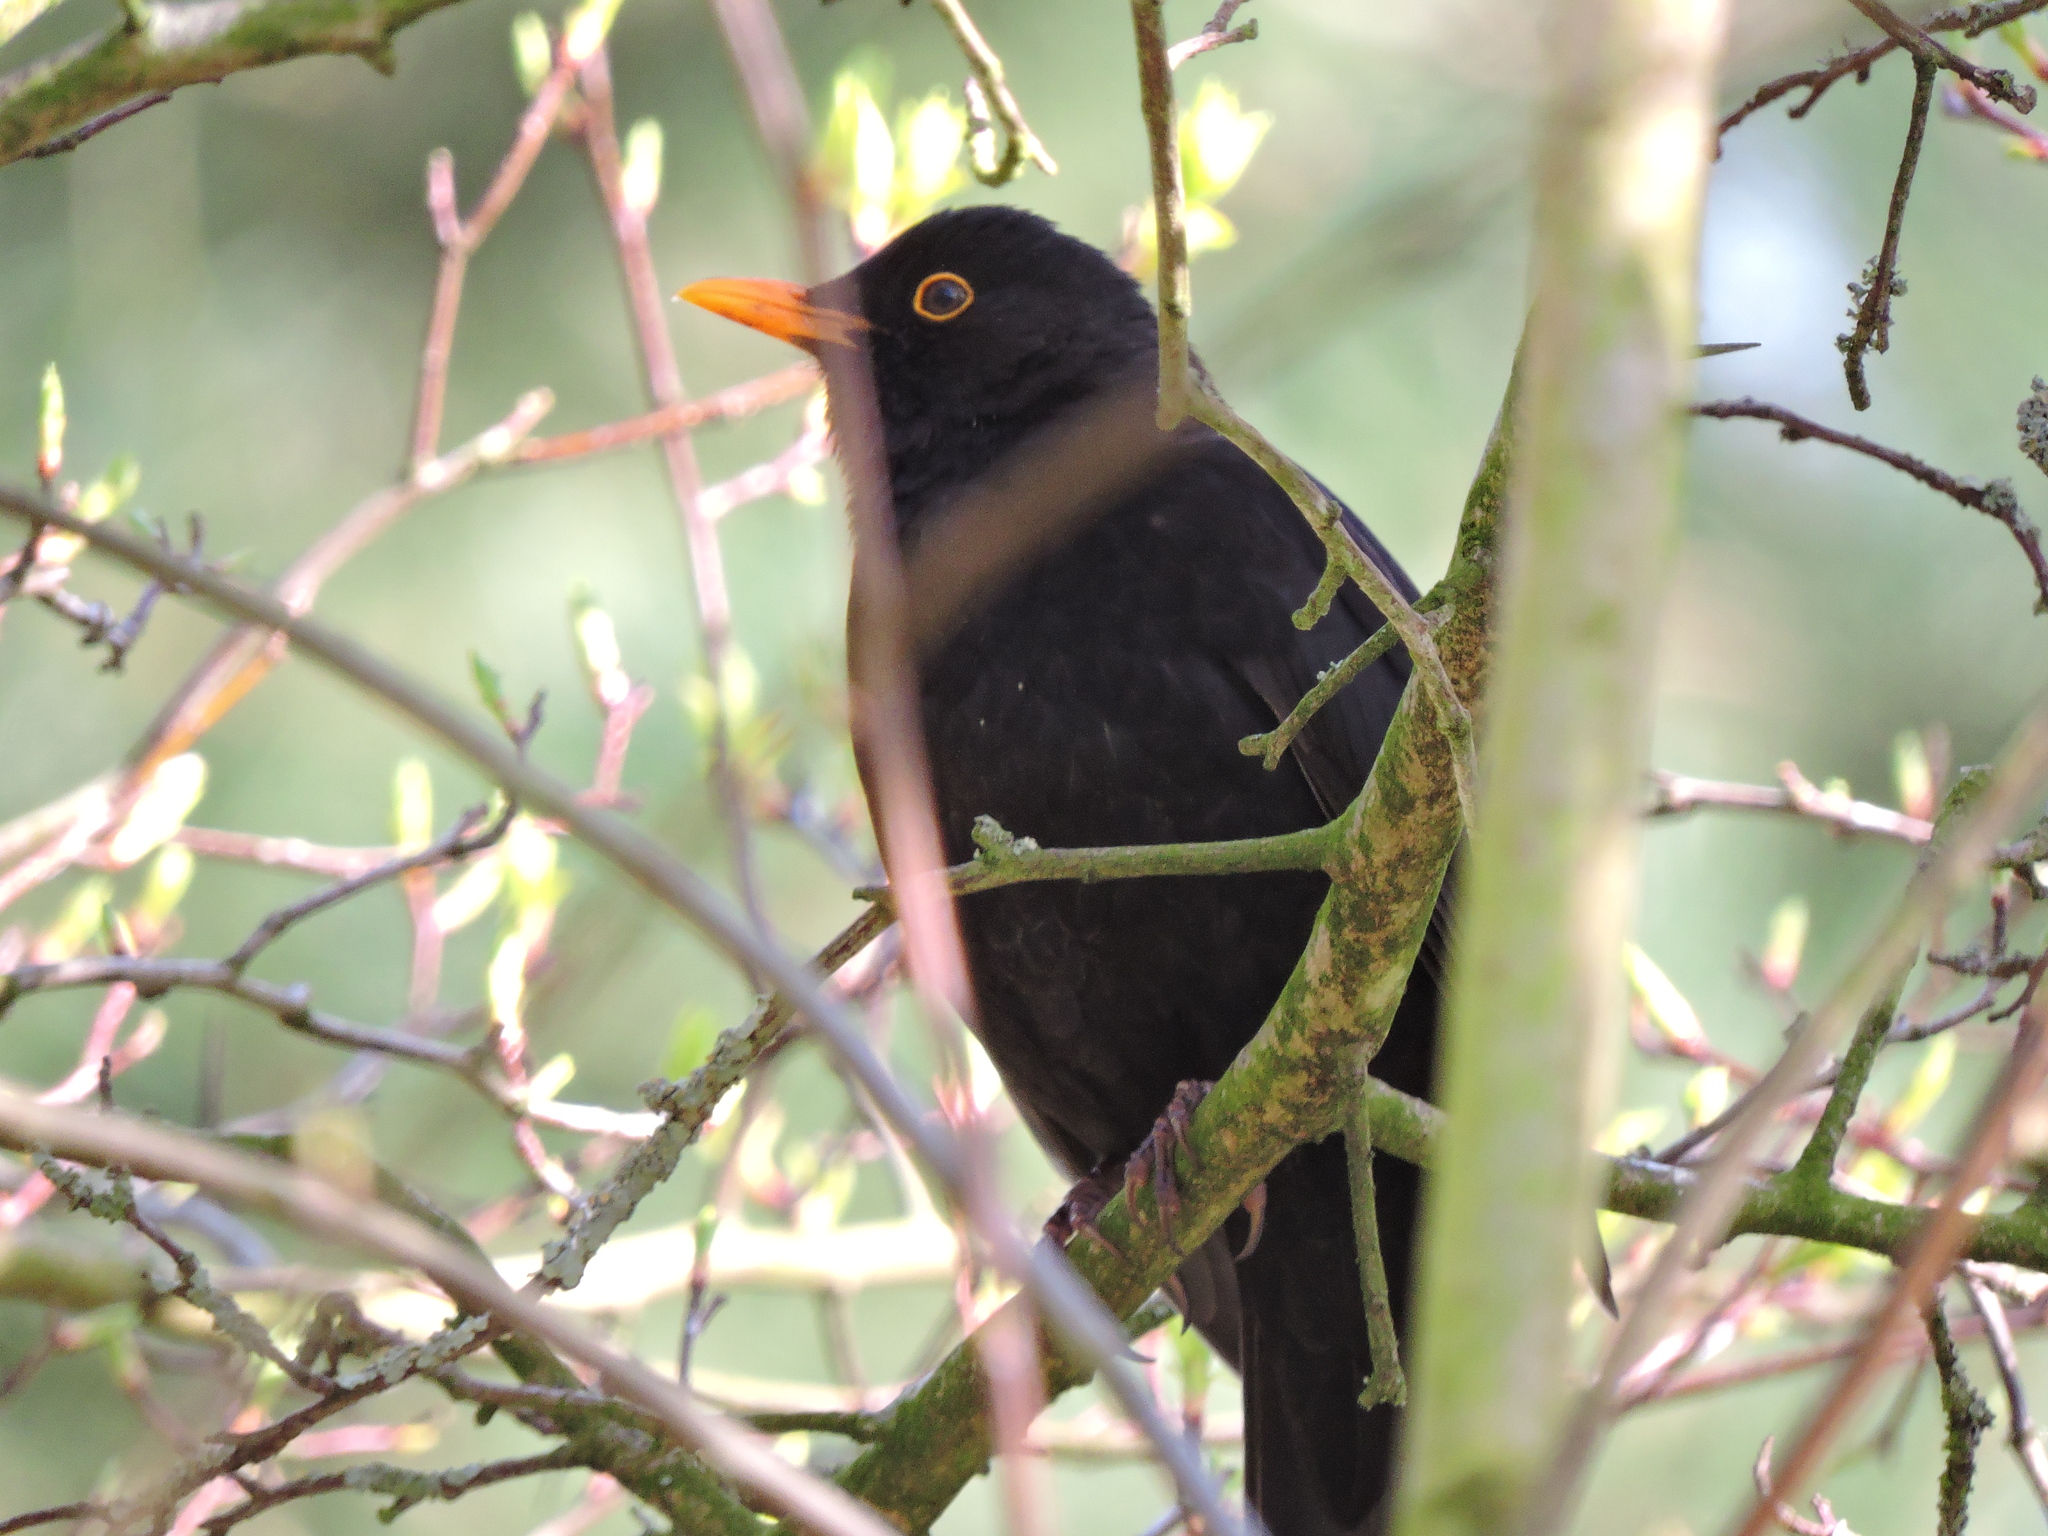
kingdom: Animalia
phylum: Chordata
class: Aves
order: Passeriformes
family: Turdidae
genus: Turdus
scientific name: Turdus merula
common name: Common blackbird
